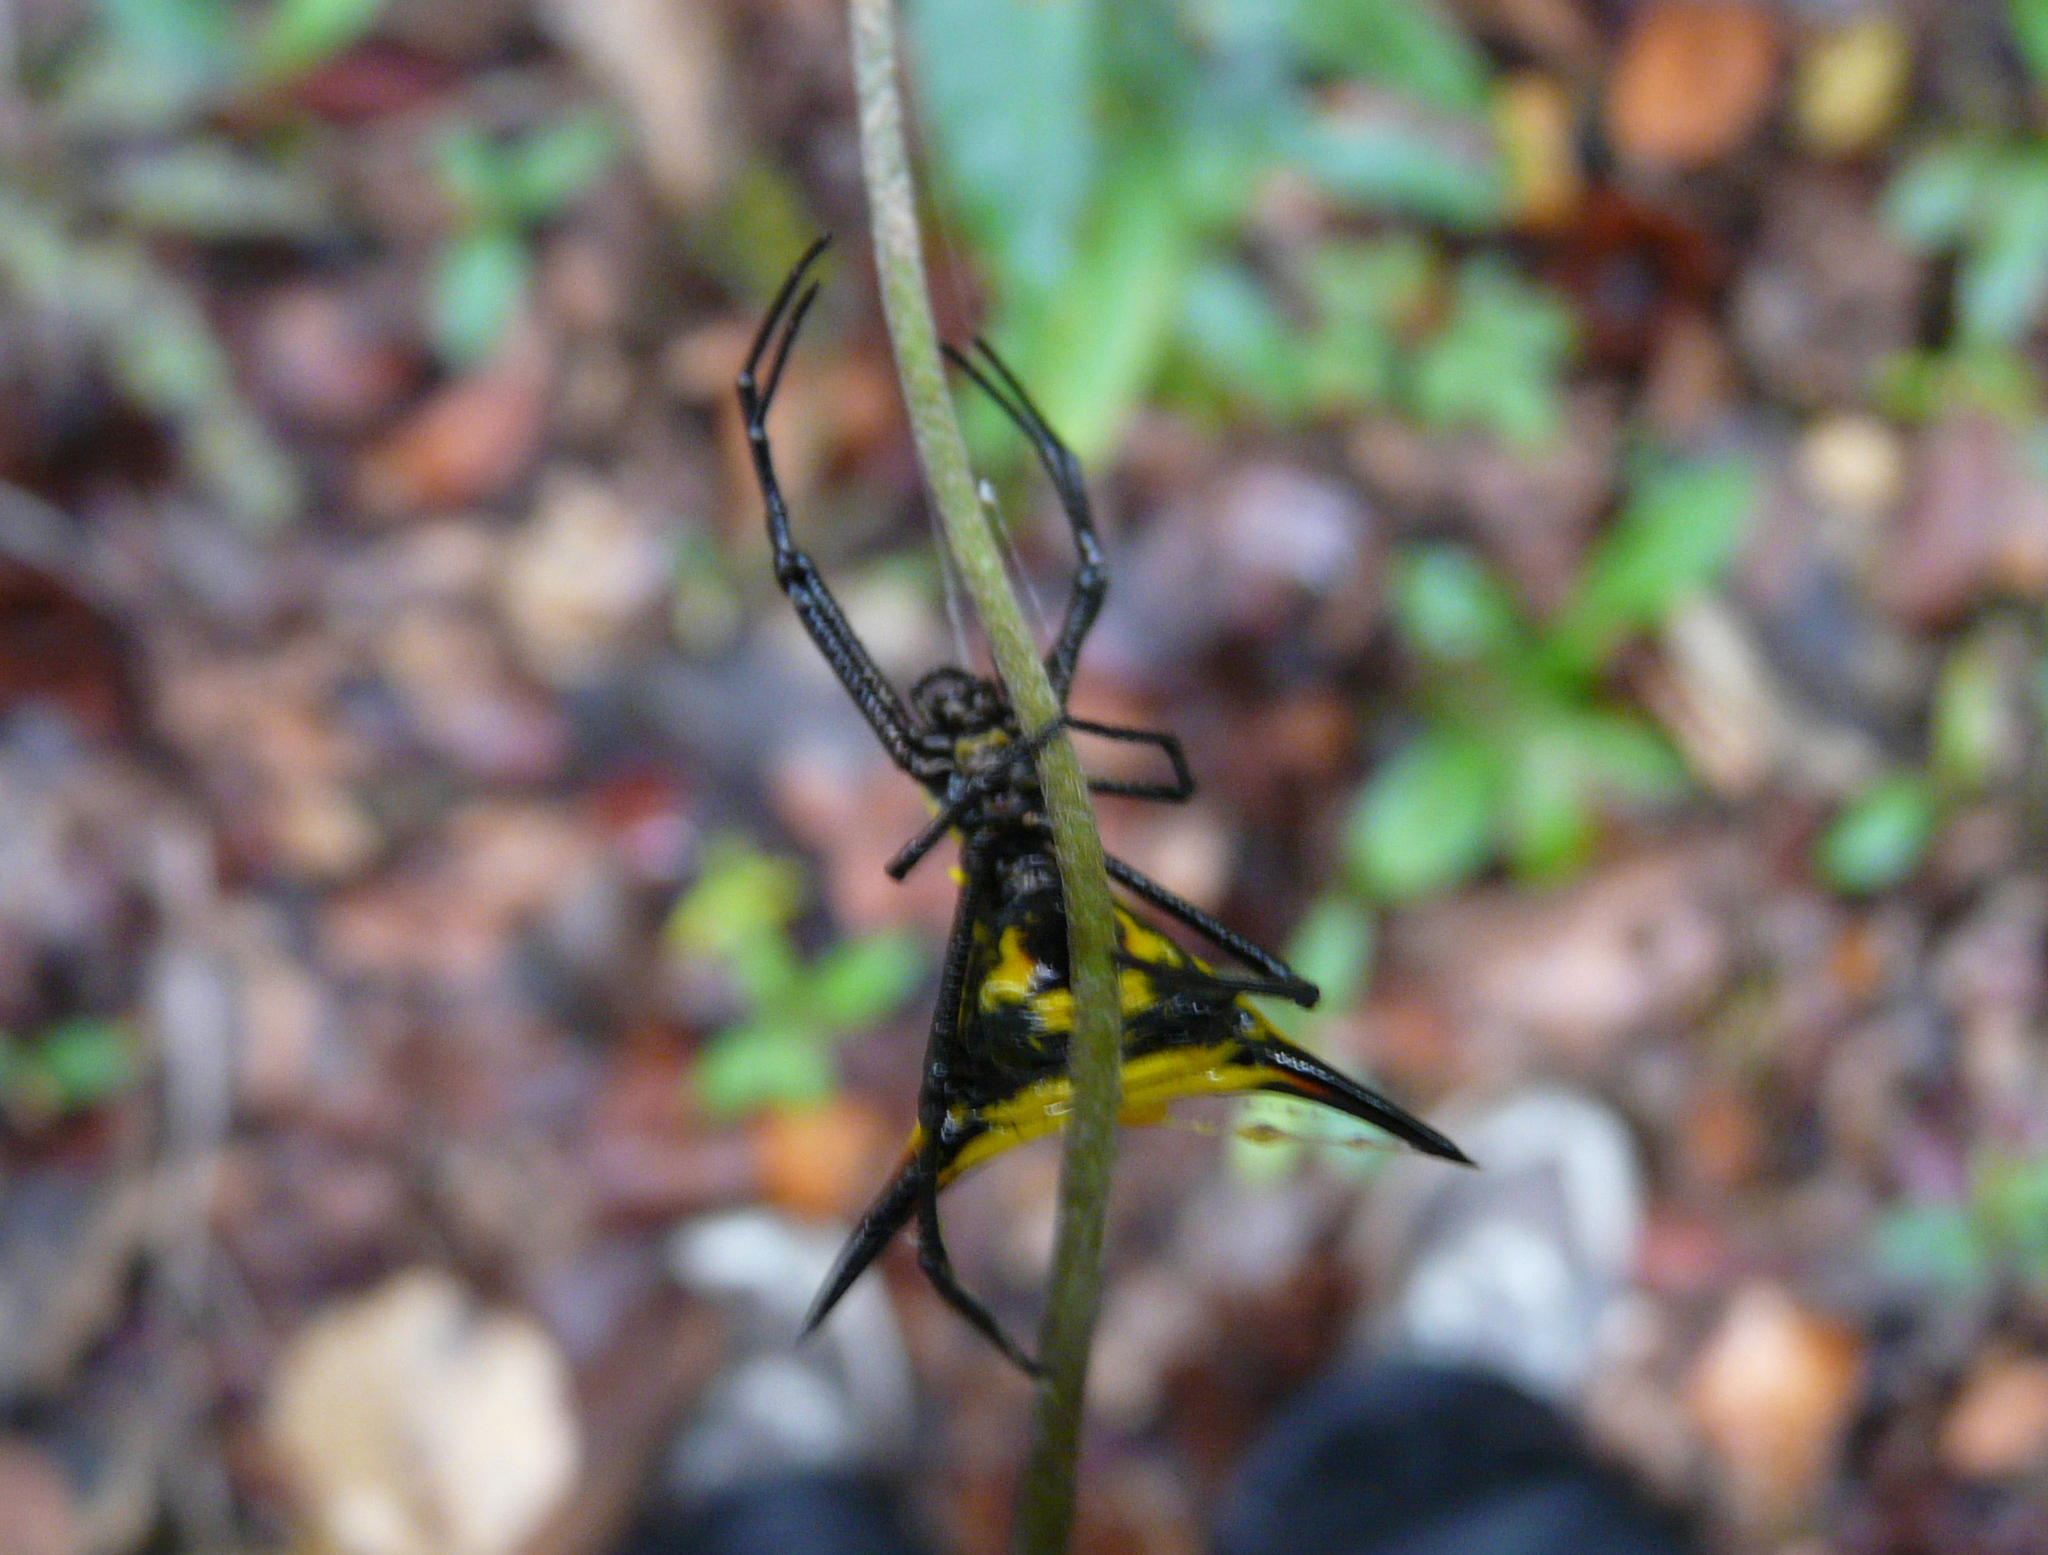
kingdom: Animalia
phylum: Arthropoda
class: Arachnida
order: Araneae
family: Araneidae
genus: Micrathena
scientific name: Micrathena schreibersi
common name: Orb weavers
